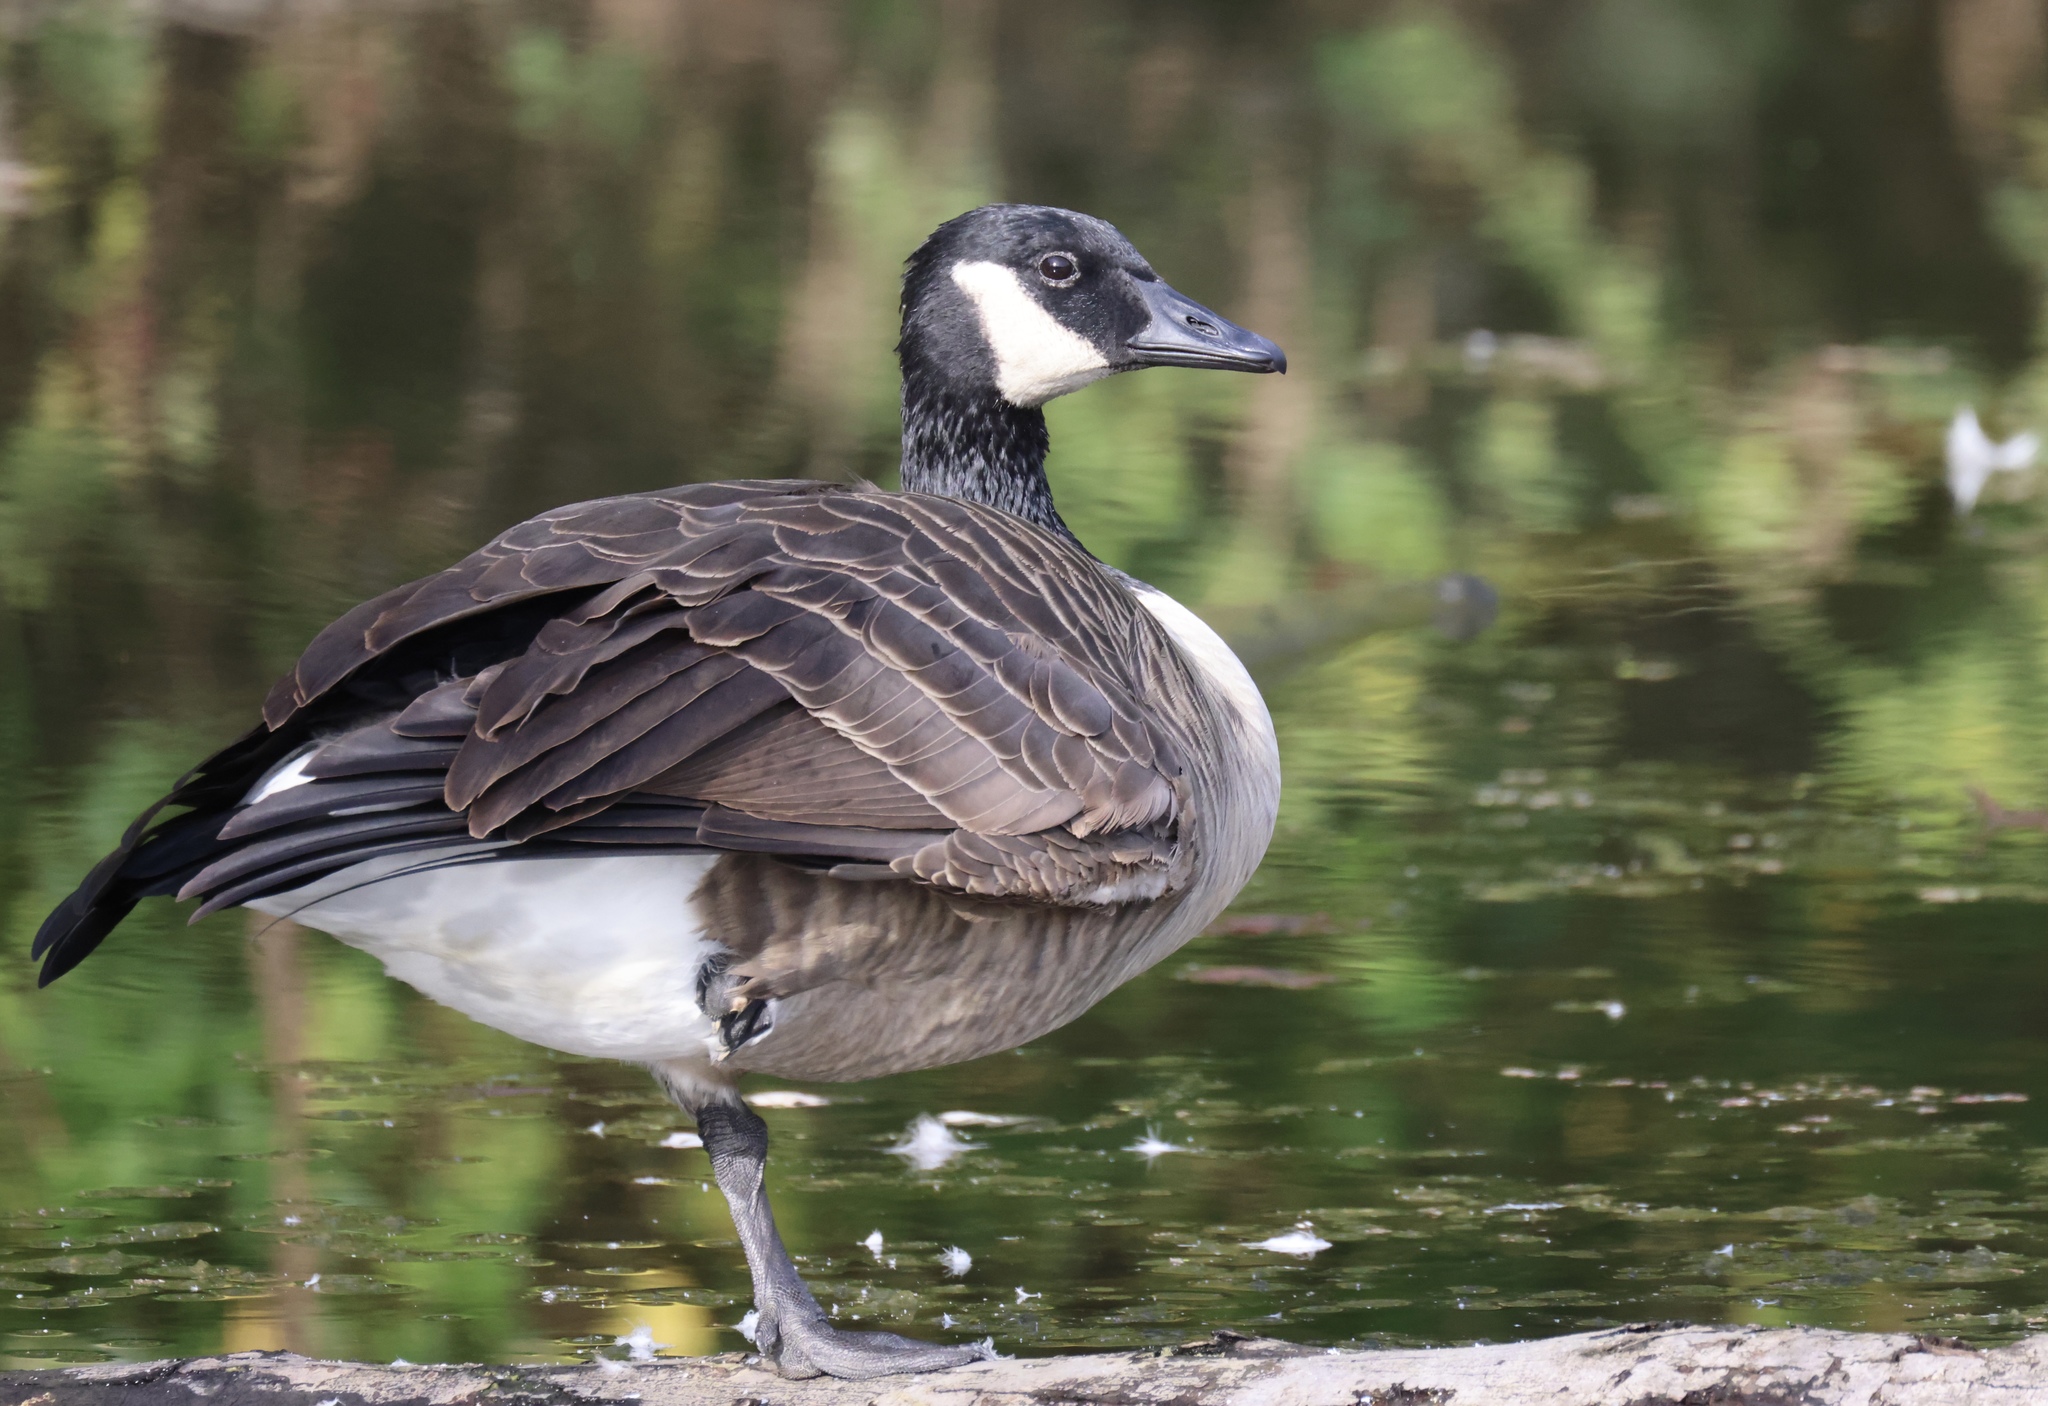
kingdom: Animalia
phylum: Chordata
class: Aves
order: Anseriformes
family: Anatidae
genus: Branta
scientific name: Branta canadensis
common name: Canada goose
